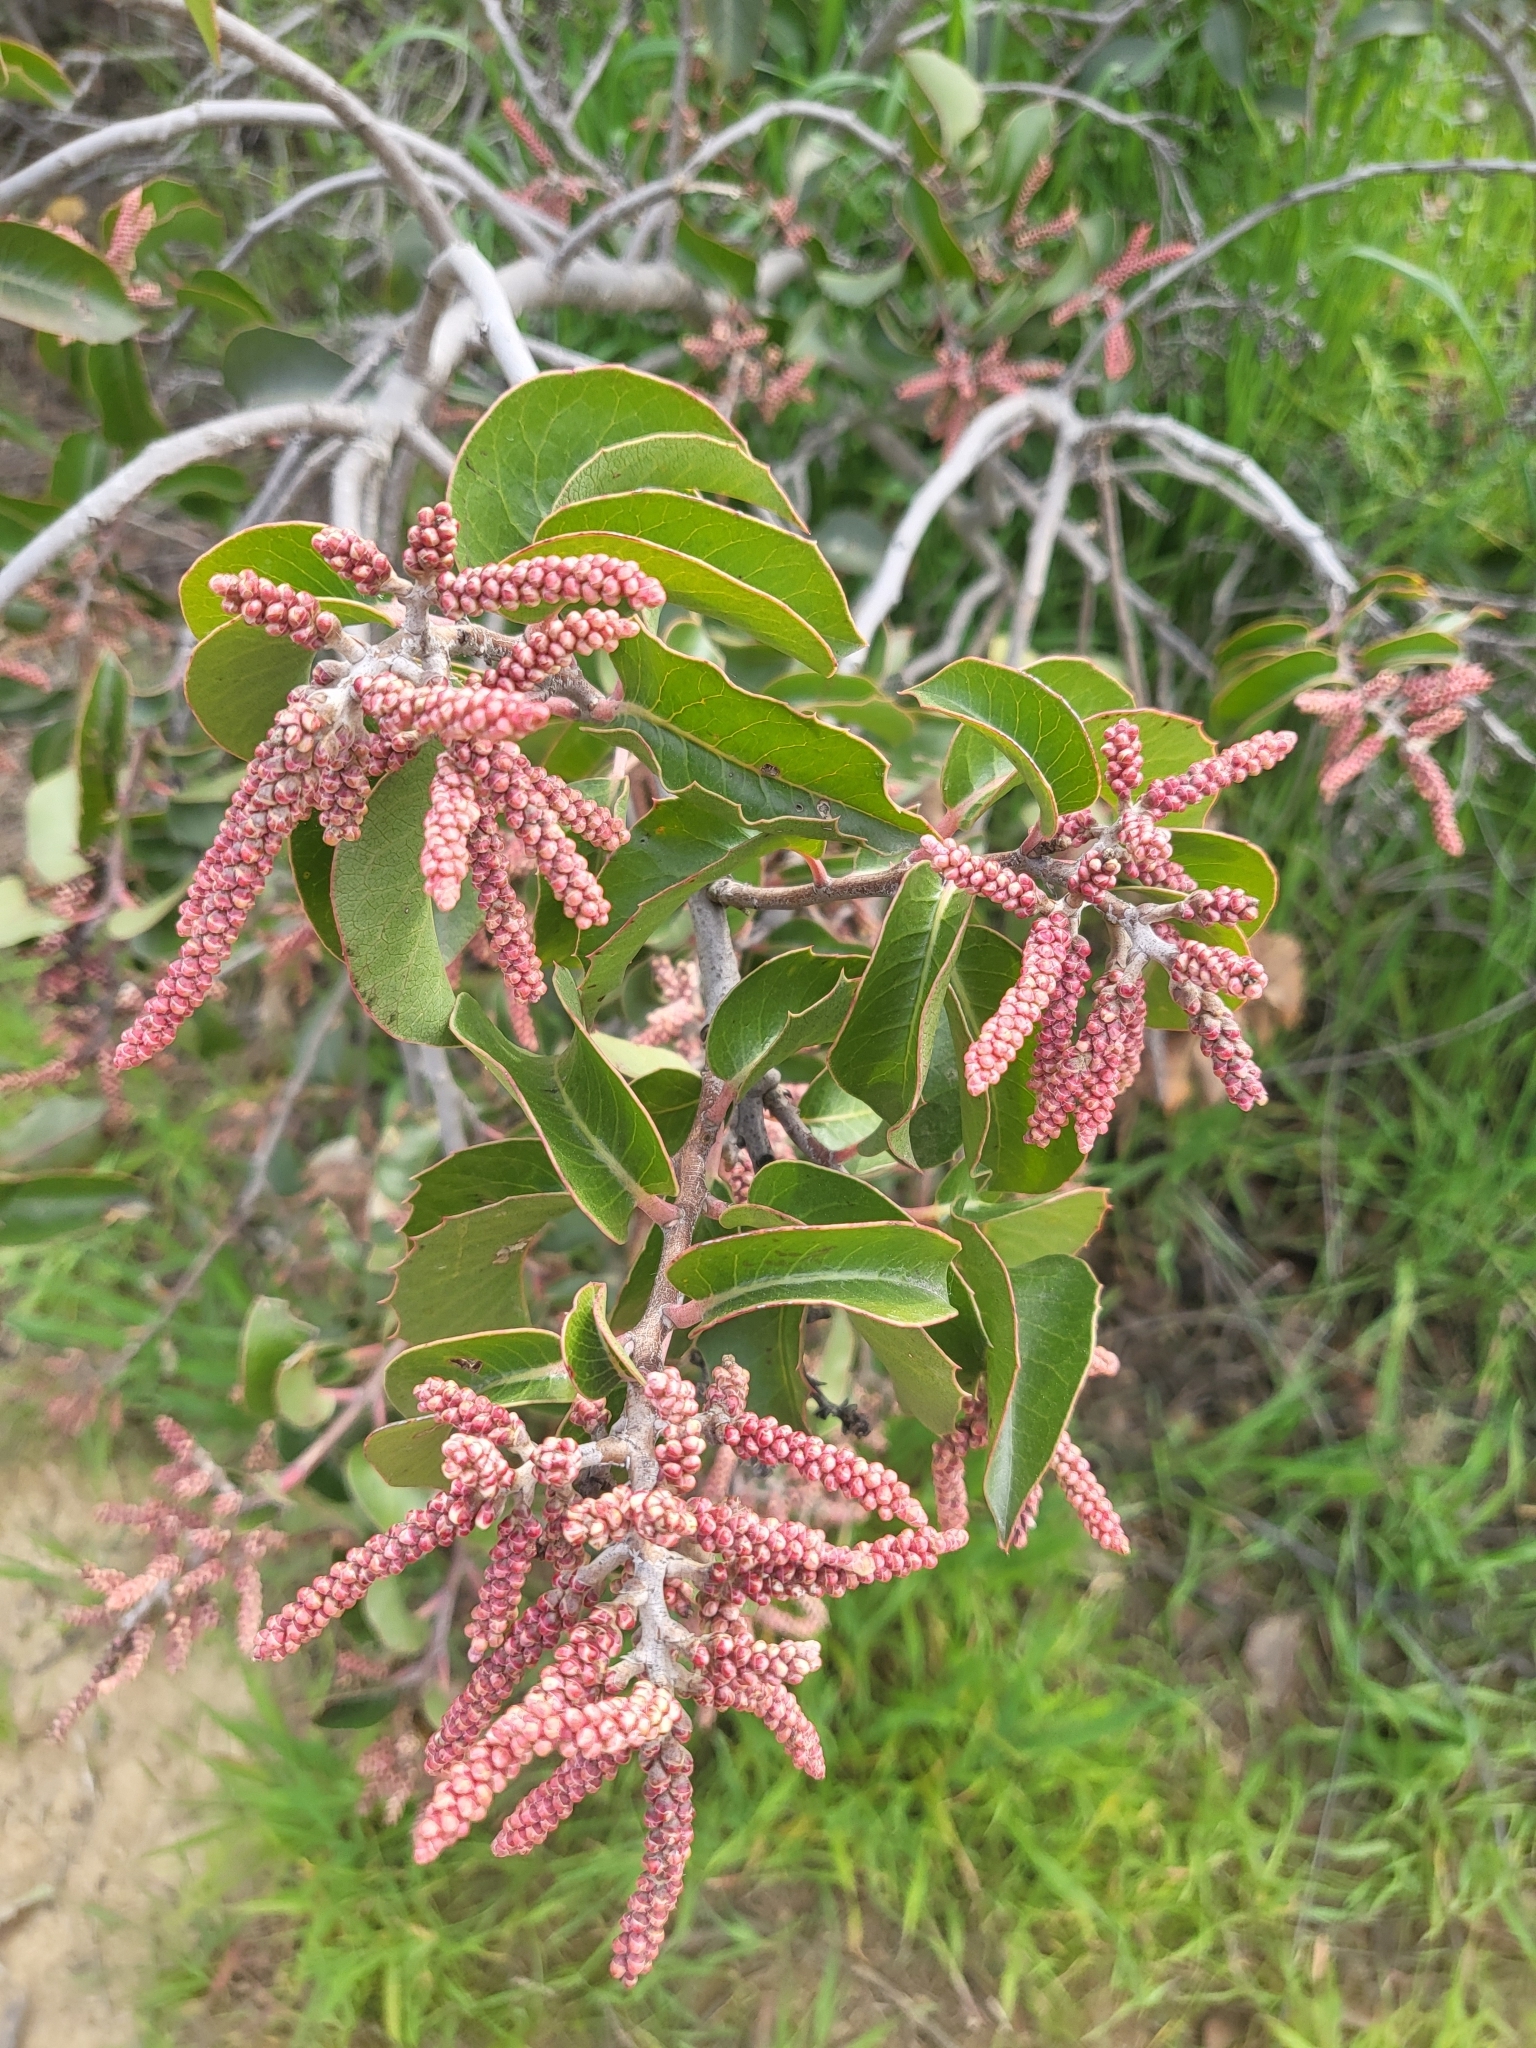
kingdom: Plantae
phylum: Tracheophyta
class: Magnoliopsida
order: Sapindales
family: Anacardiaceae
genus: Rhus
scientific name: Rhus ovata
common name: Sugar sumac
